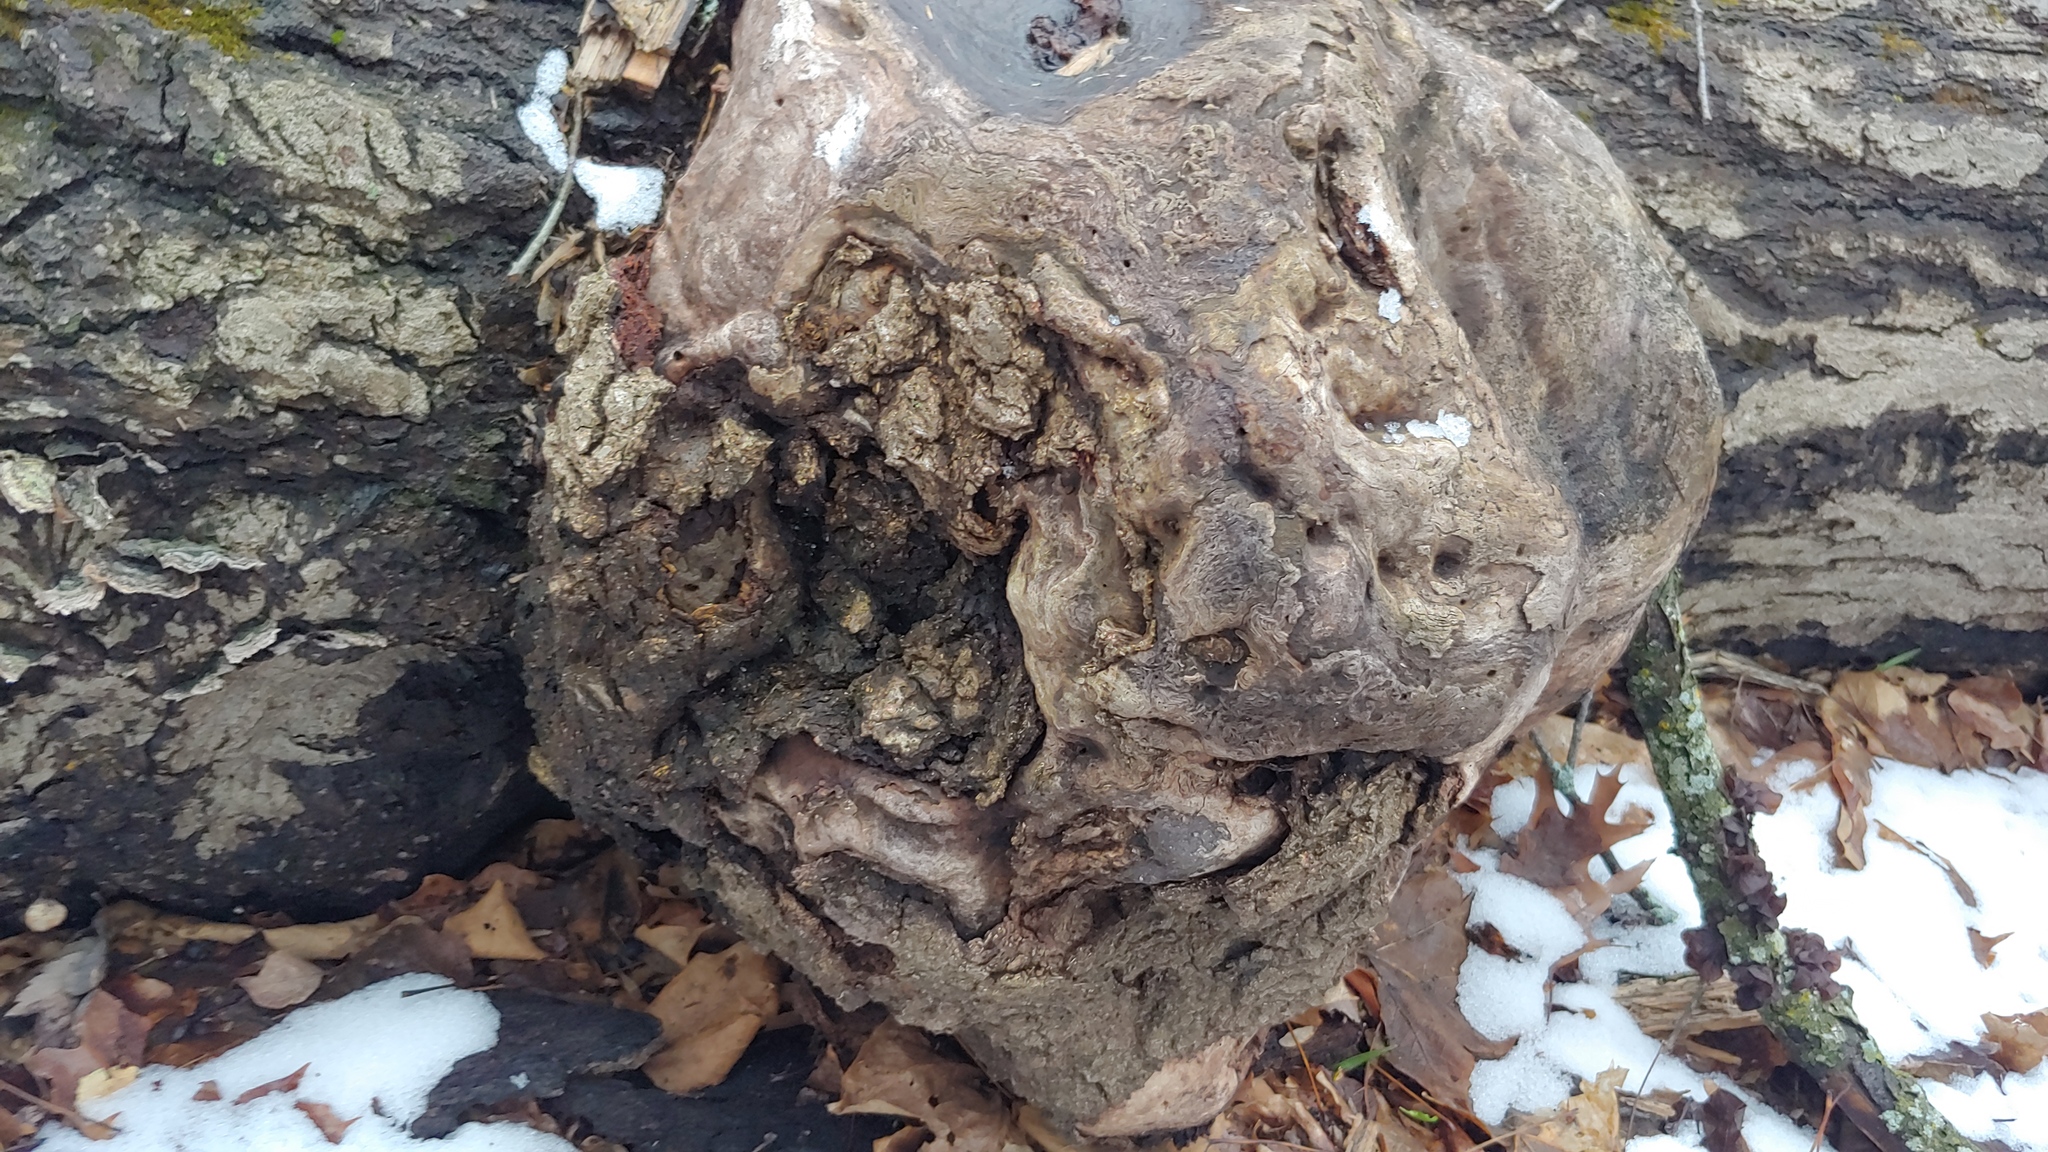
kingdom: Bacteria
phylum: Proteobacteria
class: Alphaproteobacteria
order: Rhizobiales
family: Rhizobiaceae
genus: Rhizobium
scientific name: Rhizobium Agrobacterium radiobacter
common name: Bacterial crown gall
